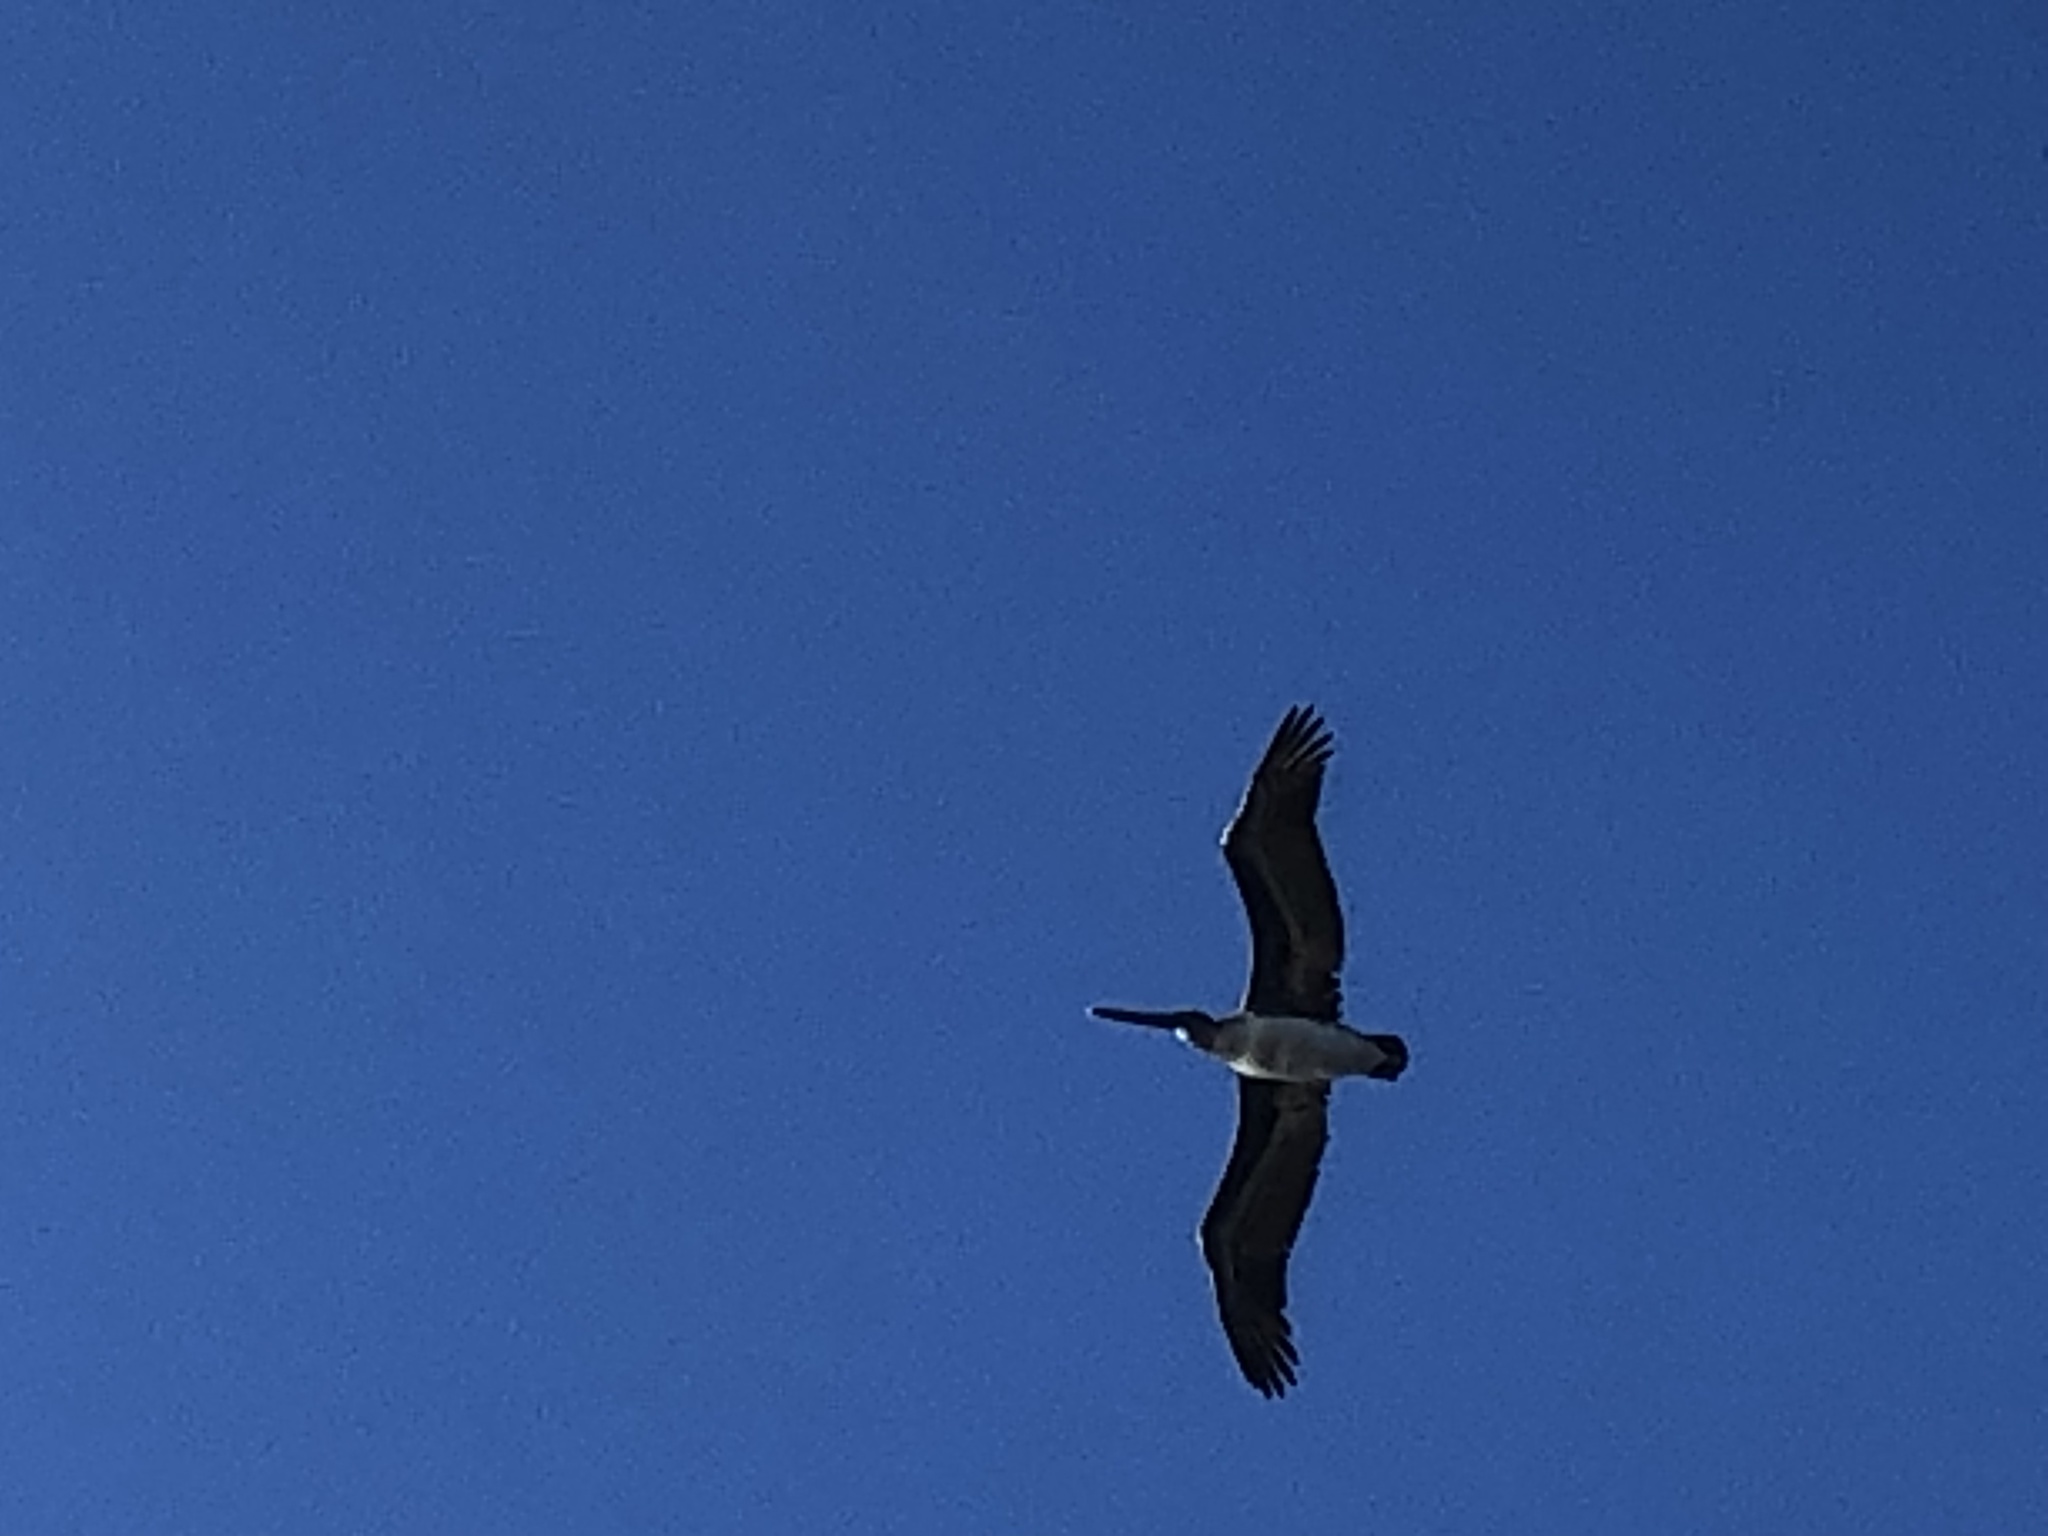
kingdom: Animalia
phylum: Chordata
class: Aves
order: Pelecaniformes
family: Pelecanidae
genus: Pelecanus
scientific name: Pelecanus occidentalis
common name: Brown pelican
